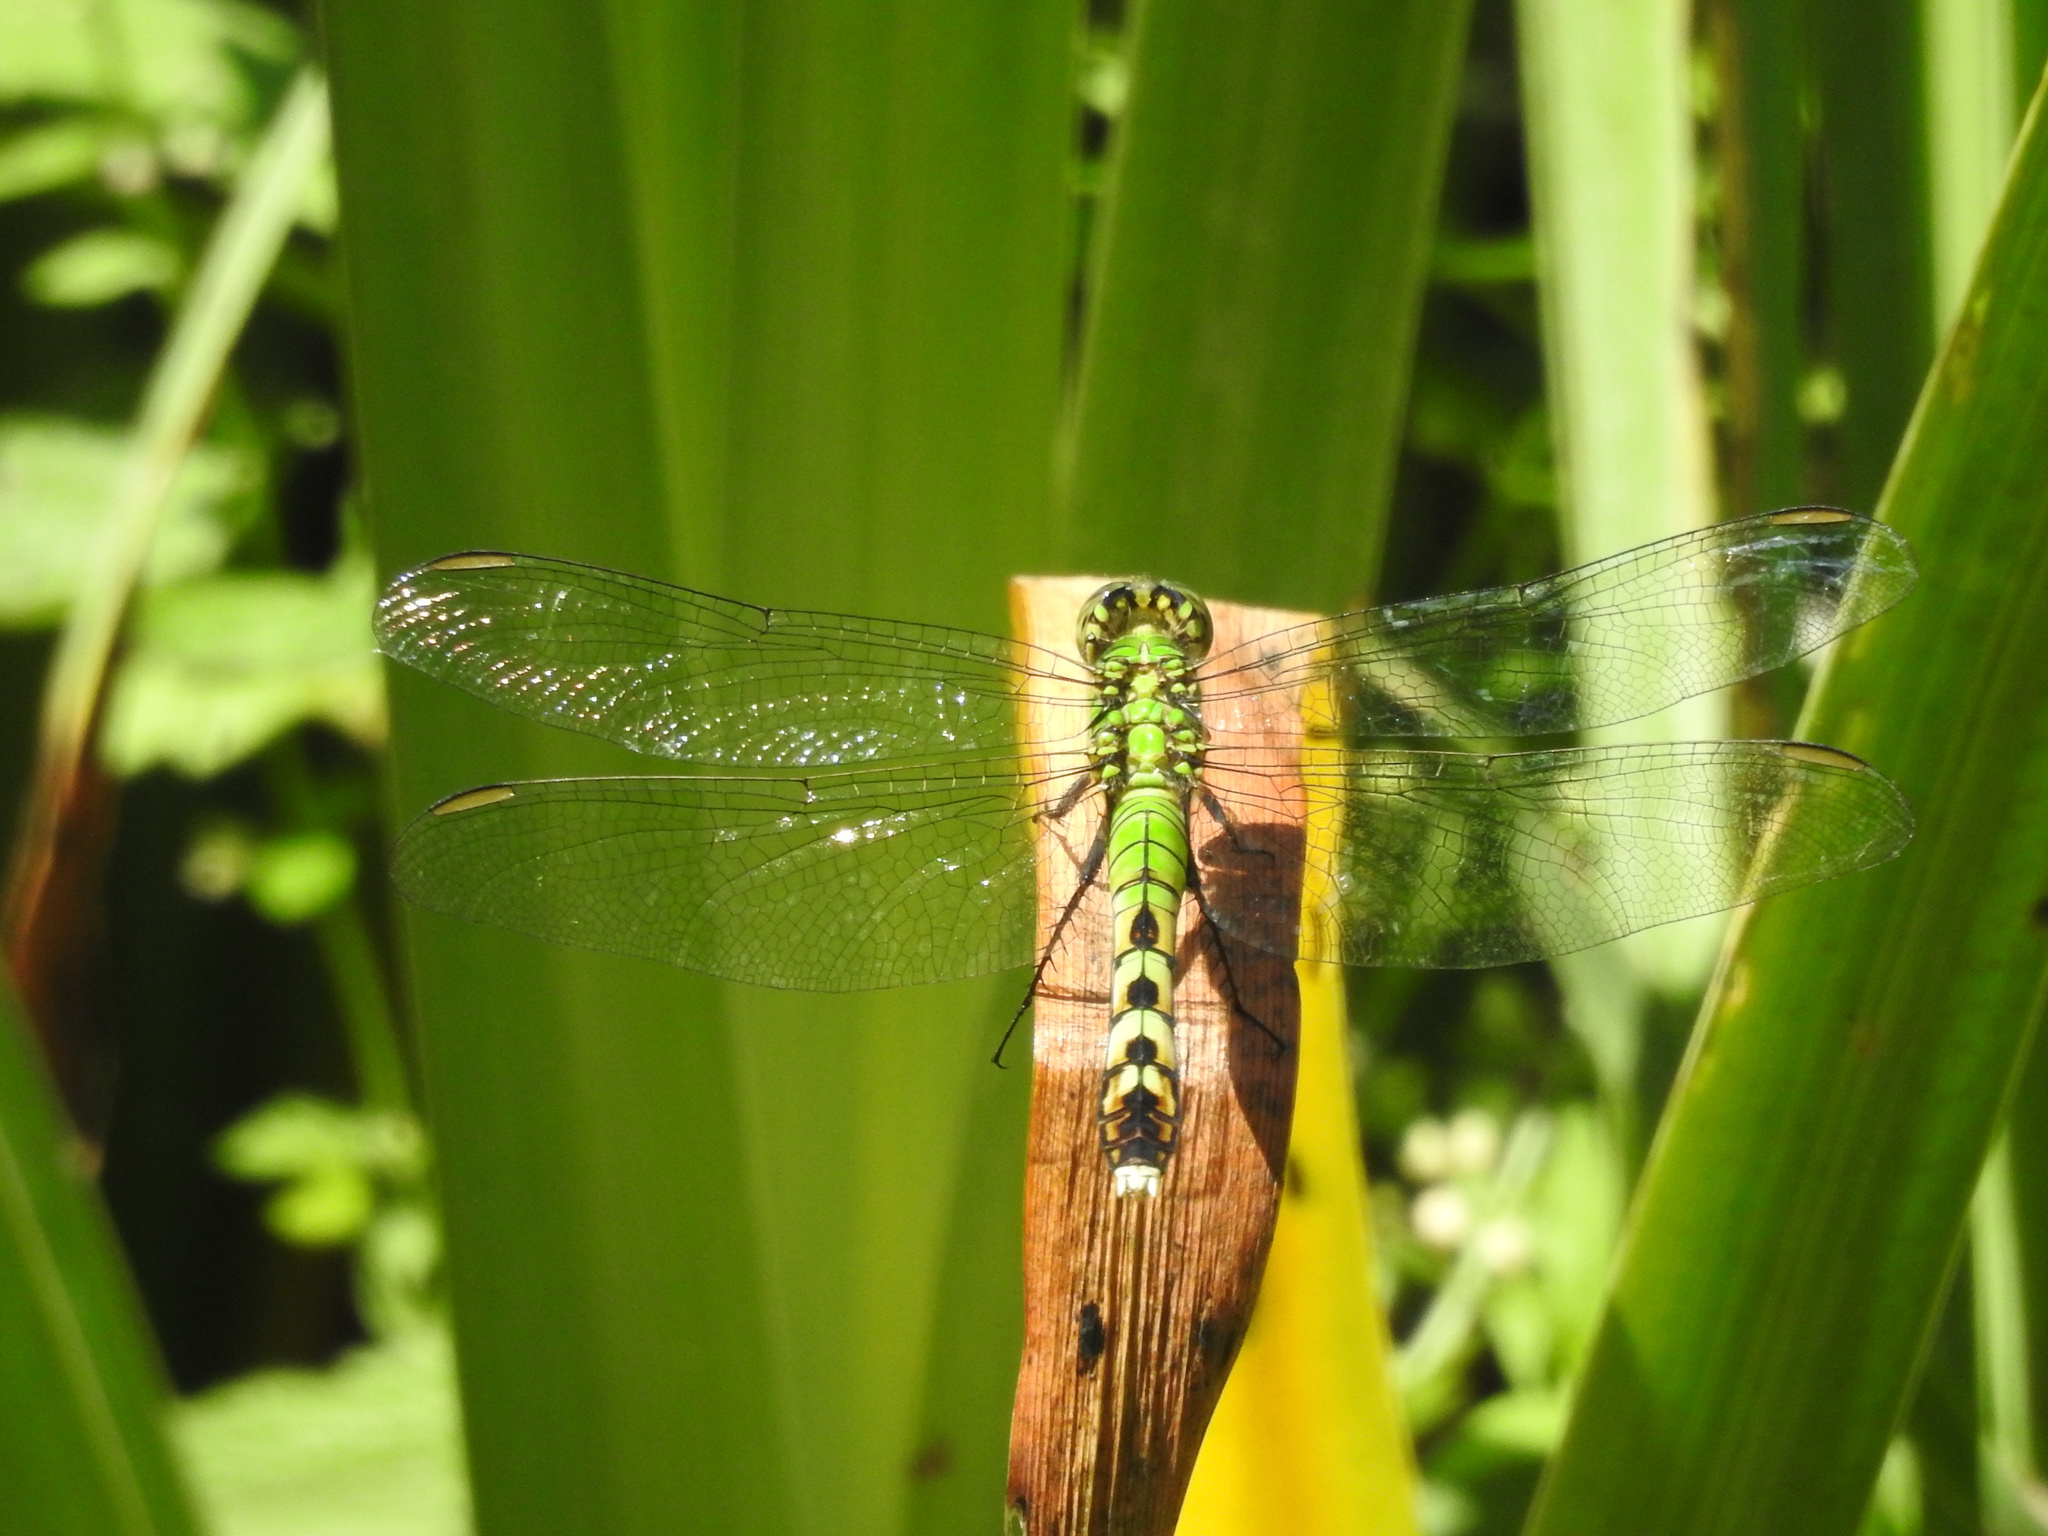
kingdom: Animalia
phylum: Arthropoda
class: Insecta
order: Odonata
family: Libellulidae
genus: Erythemis
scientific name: Erythemis simplicicollis
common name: Eastern pondhawk
